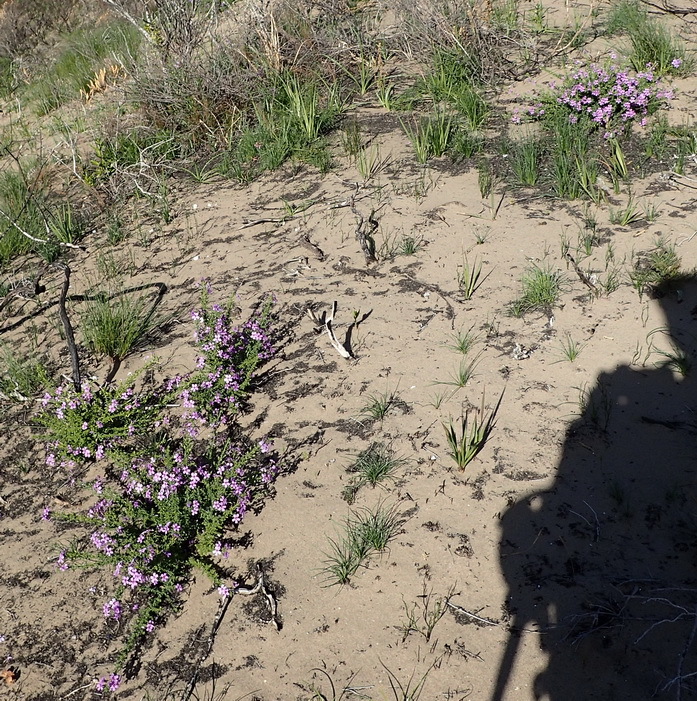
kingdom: Plantae
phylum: Tracheophyta
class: Magnoliopsida
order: Lamiales
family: Scrophulariaceae
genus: Jamesbrittenia
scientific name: Jamesbrittenia tenuifolia
